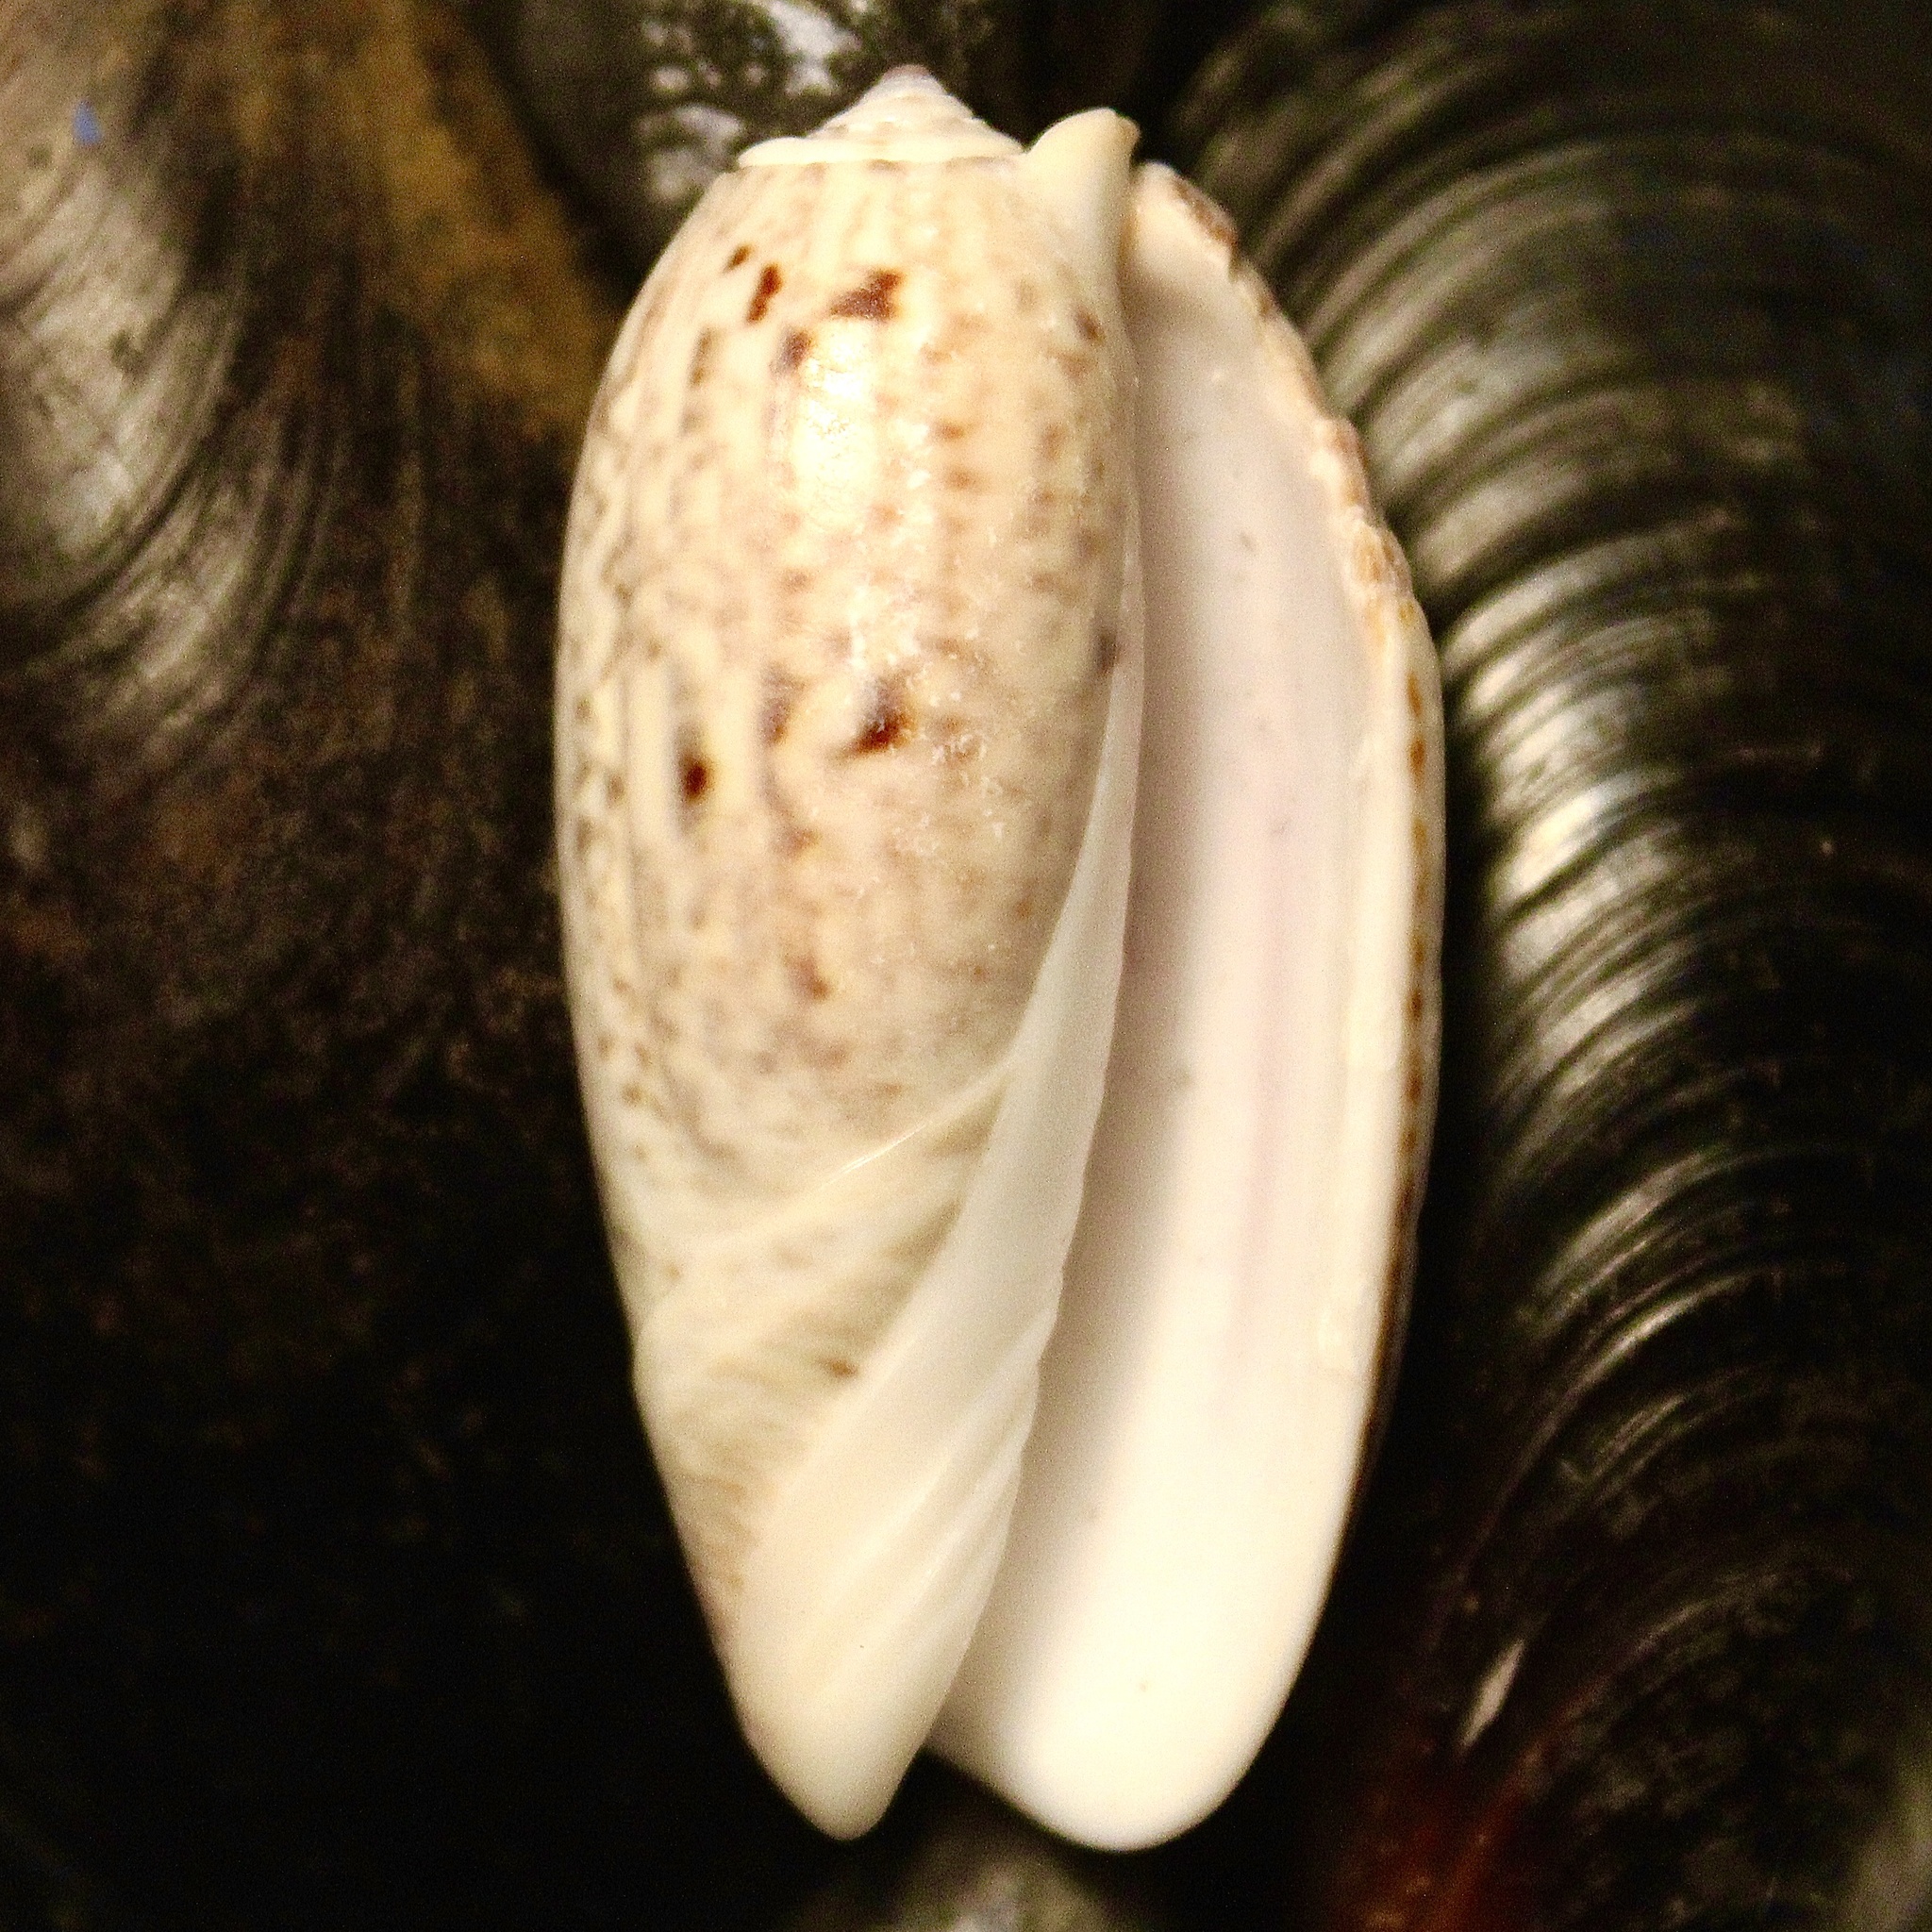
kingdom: Animalia
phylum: Mollusca
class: Gastropoda
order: Neogastropoda
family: Olividae
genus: Oliva
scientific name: Oliva sayana
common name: Lettered olive
